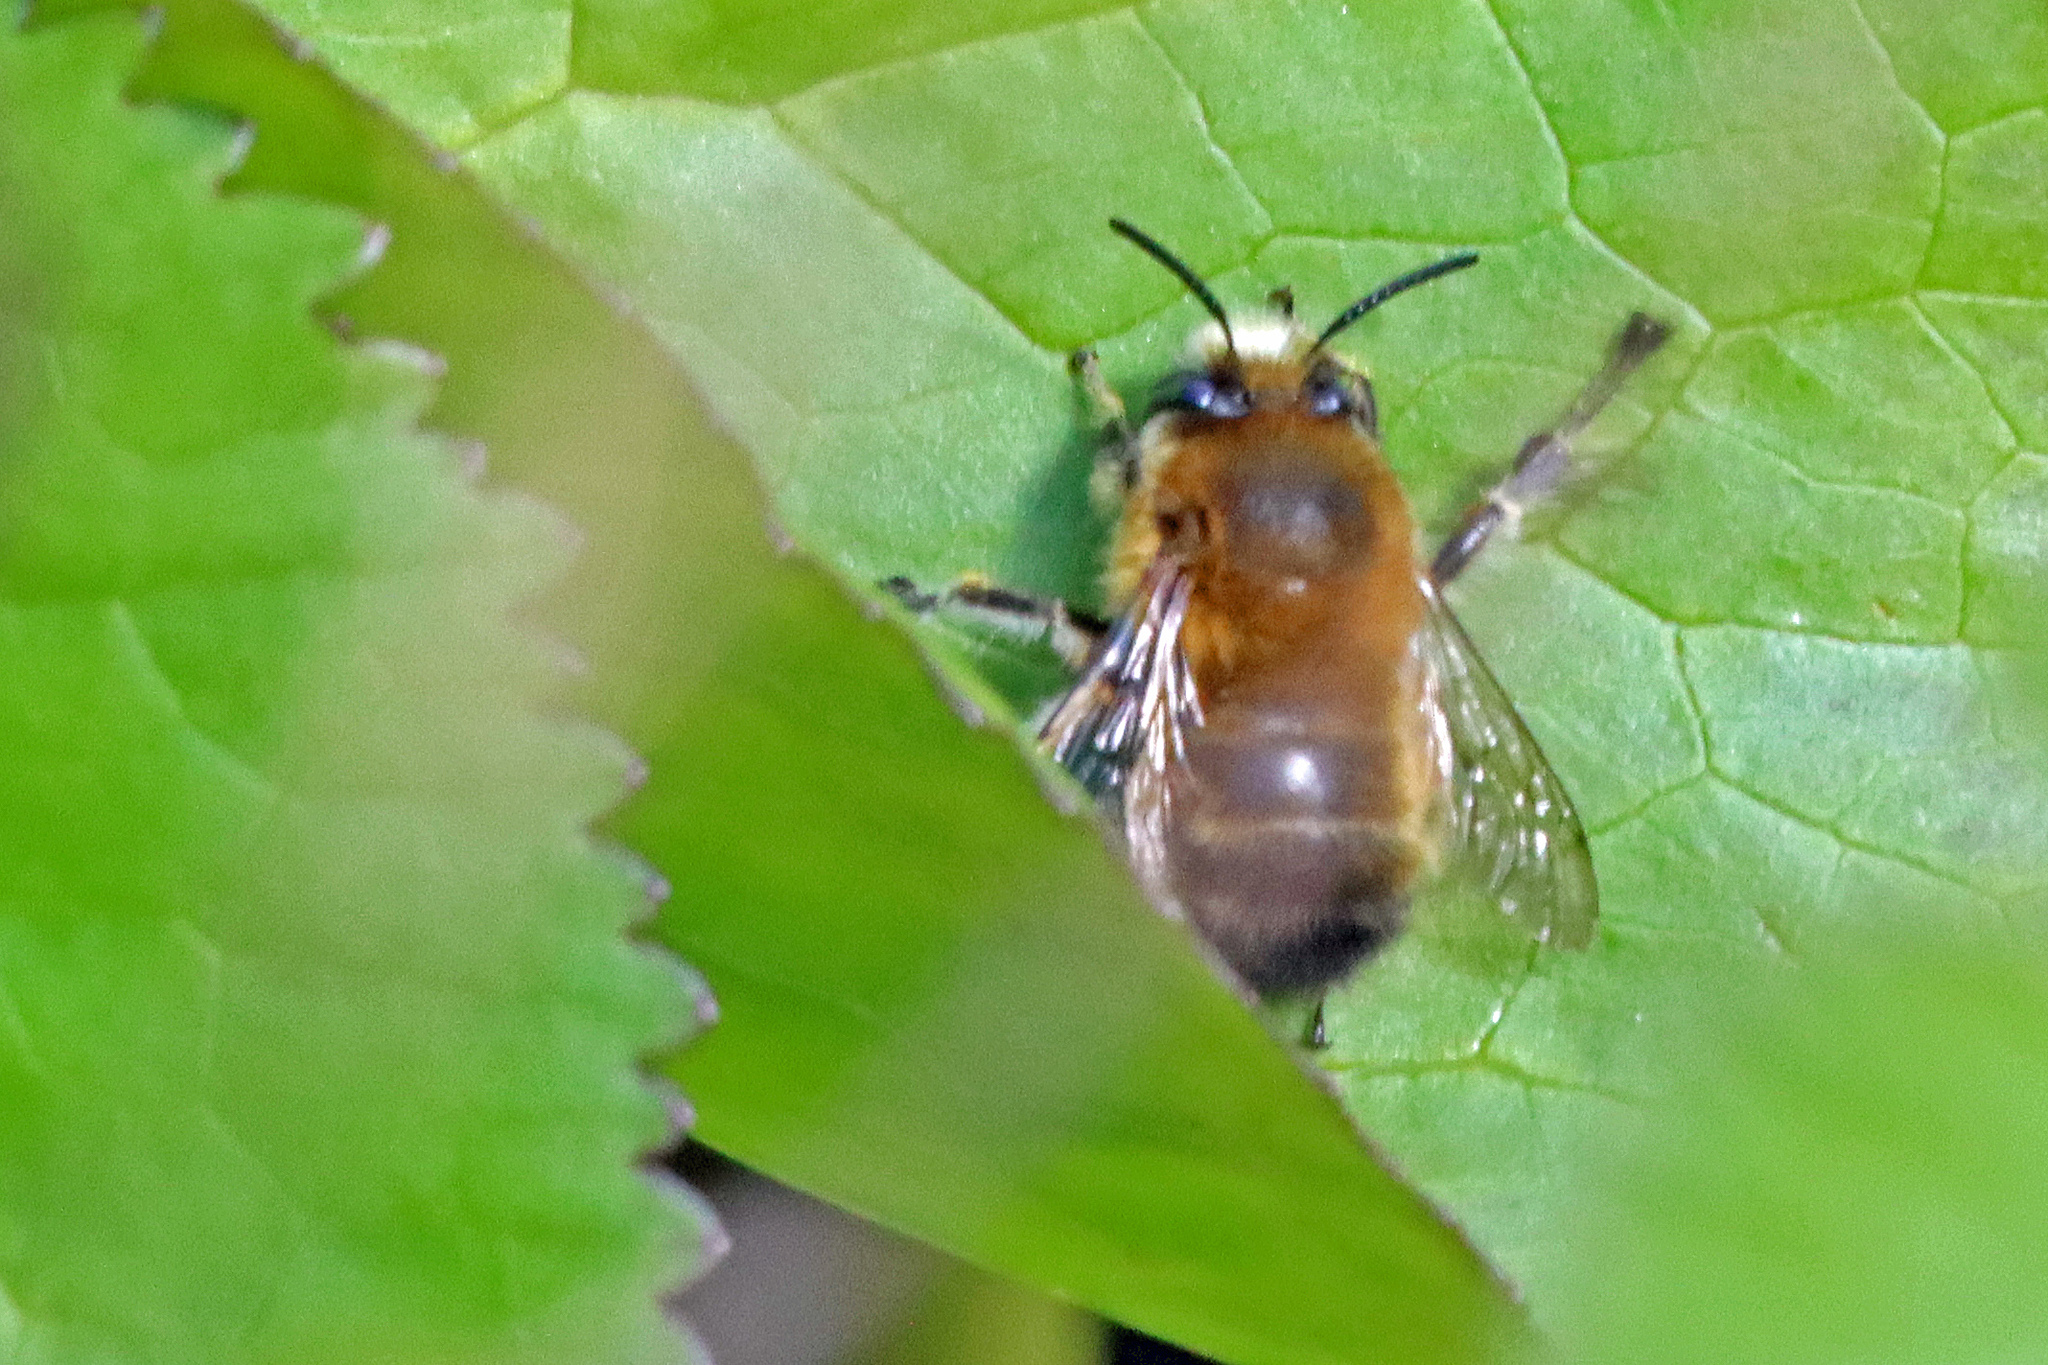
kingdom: Animalia
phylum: Arthropoda
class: Insecta
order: Hymenoptera
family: Apidae
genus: Anthophora
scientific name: Anthophora plumipes
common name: Hairy-footed flower bee
